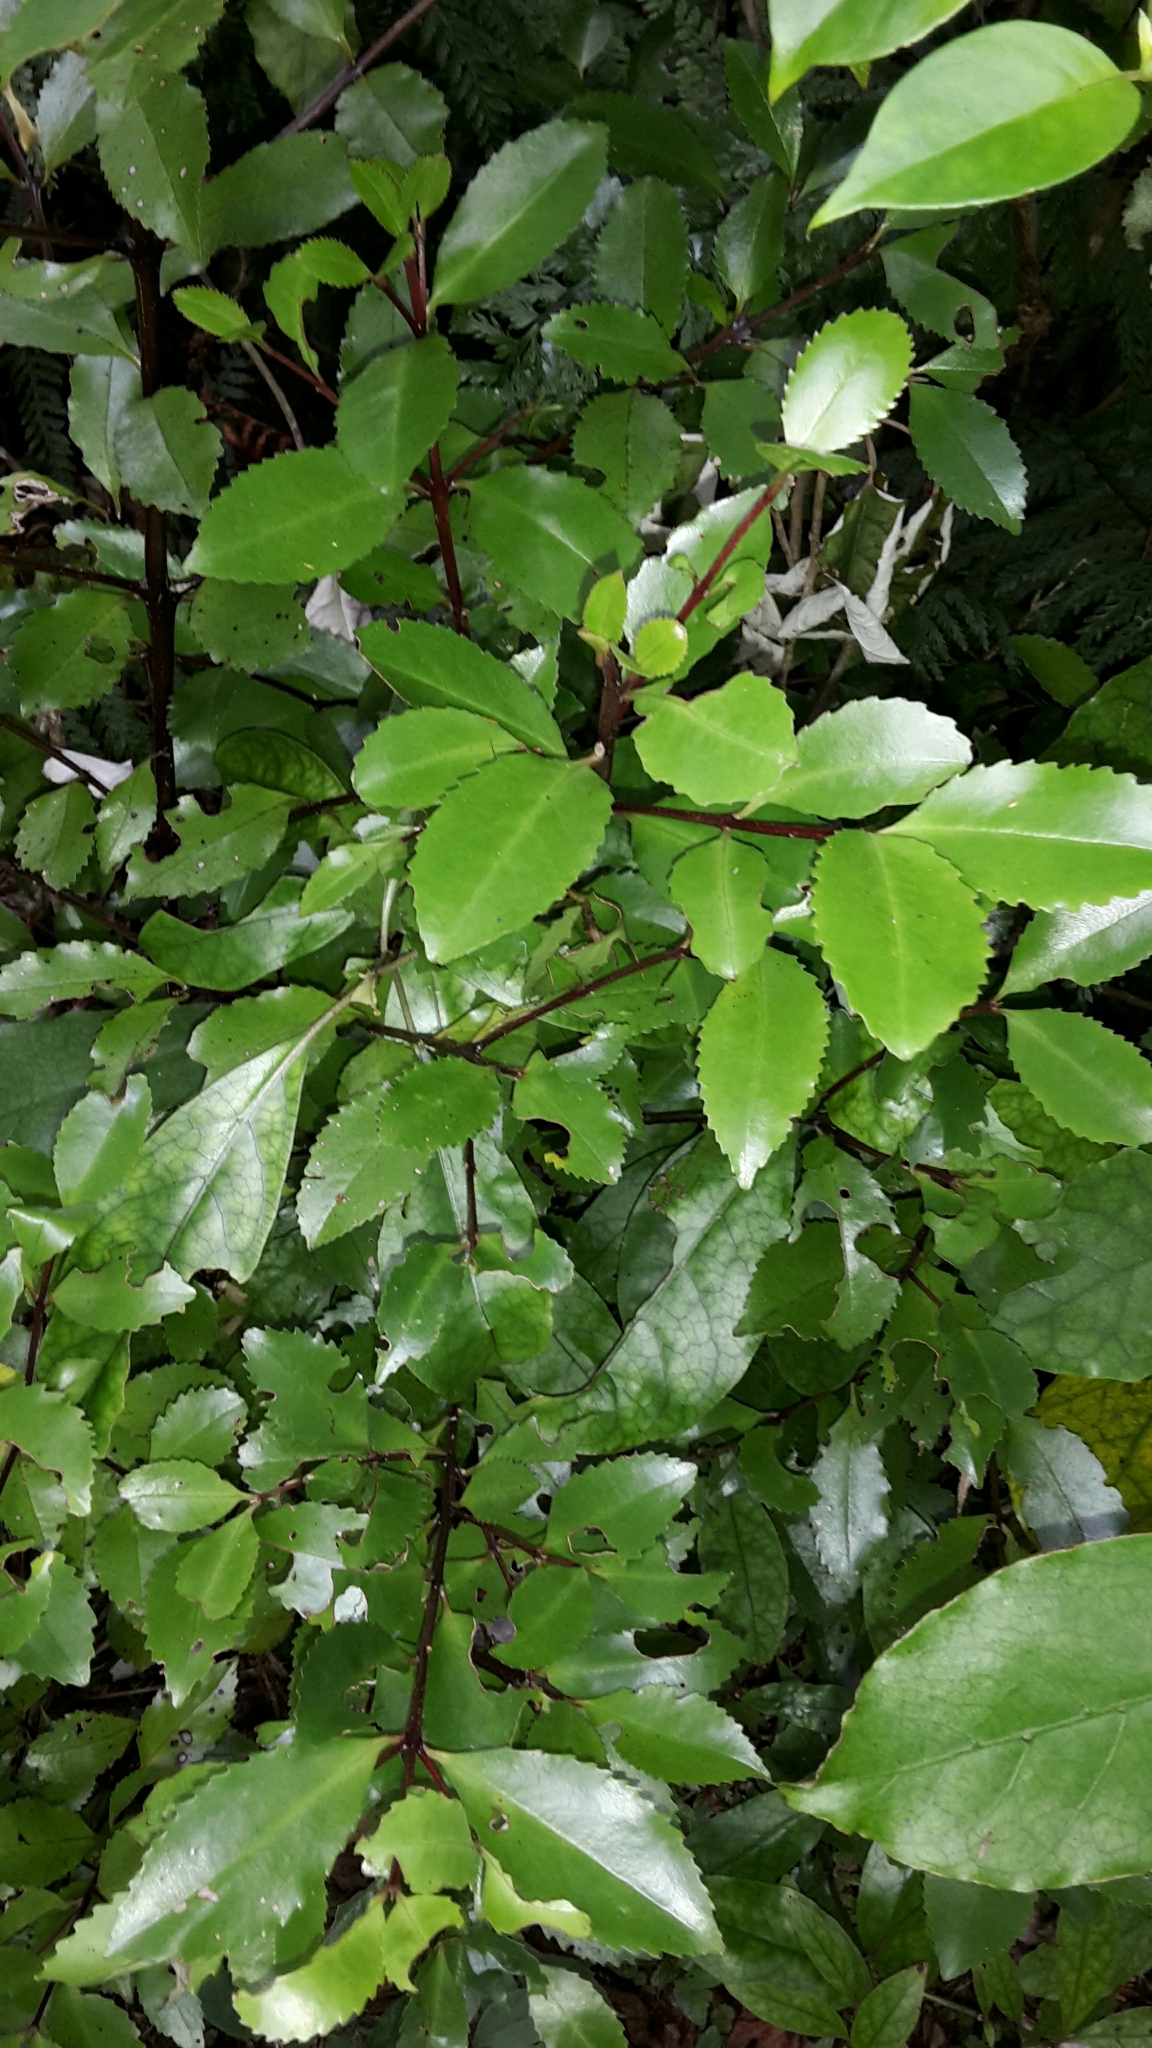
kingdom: Plantae
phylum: Tracheophyta
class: Magnoliopsida
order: Laurales
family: Atherospermataceae
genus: Laurelia
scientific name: Laurelia novae-zelandiae
